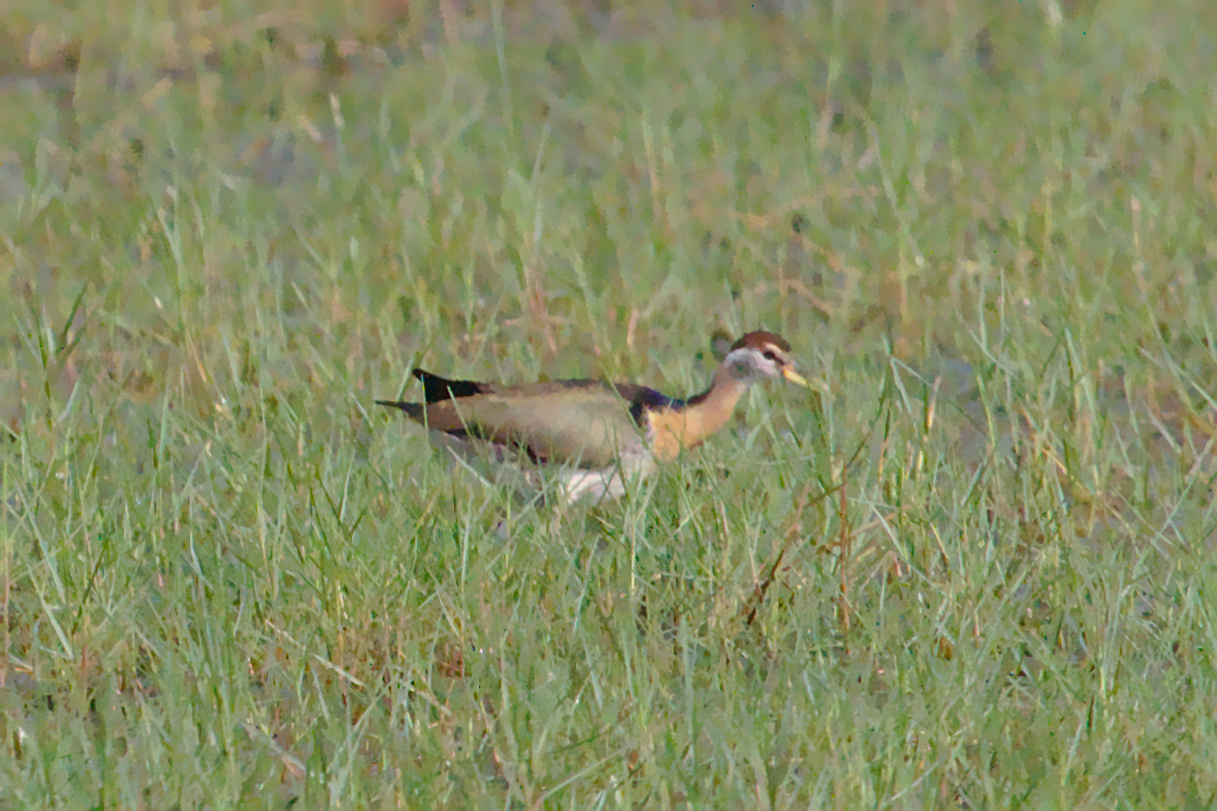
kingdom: Animalia
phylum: Chordata
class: Aves
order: Charadriiformes
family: Jacanidae
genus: Metopidius
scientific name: Metopidius indicus
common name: Bronze-winged jacana
